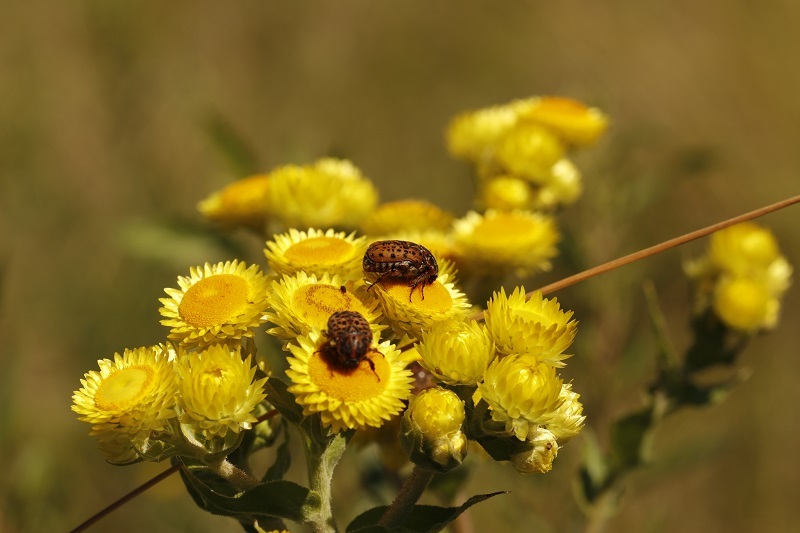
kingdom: Animalia
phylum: Arthropoda
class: Insecta
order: Coleoptera
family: Scarabaeidae
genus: Atrichelaphinis
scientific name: Atrichelaphinis tigrina
